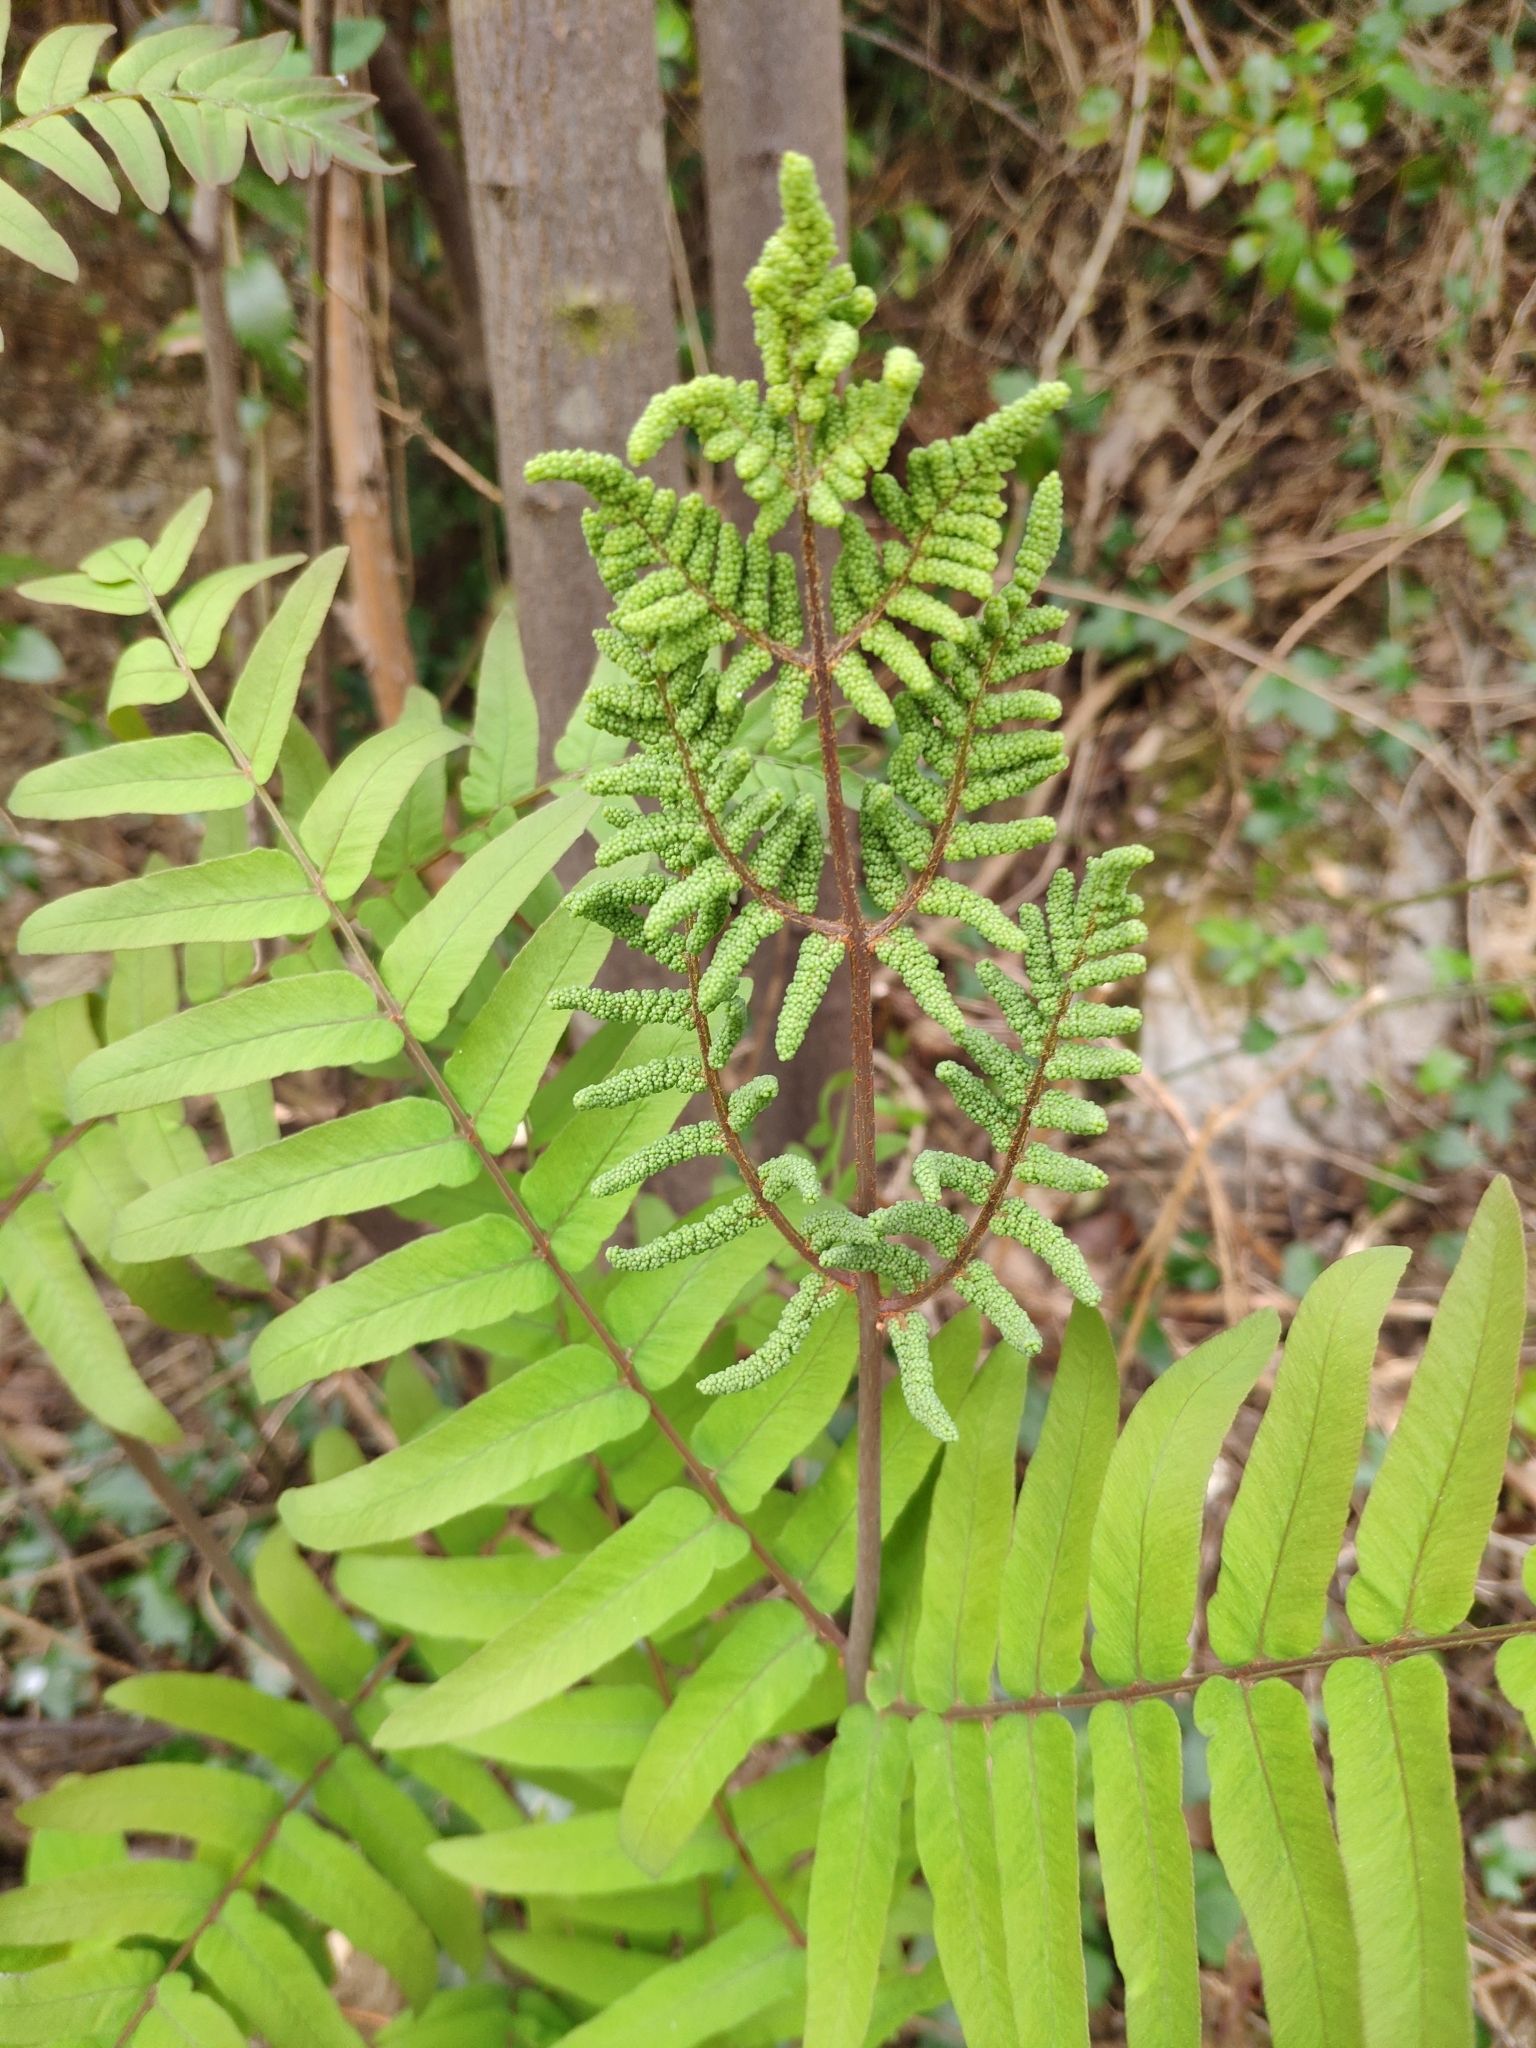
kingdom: Plantae
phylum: Tracheophyta
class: Polypodiopsida
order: Osmundales
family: Osmundaceae
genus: Osmunda
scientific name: Osmunda regalis
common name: Royal fern
